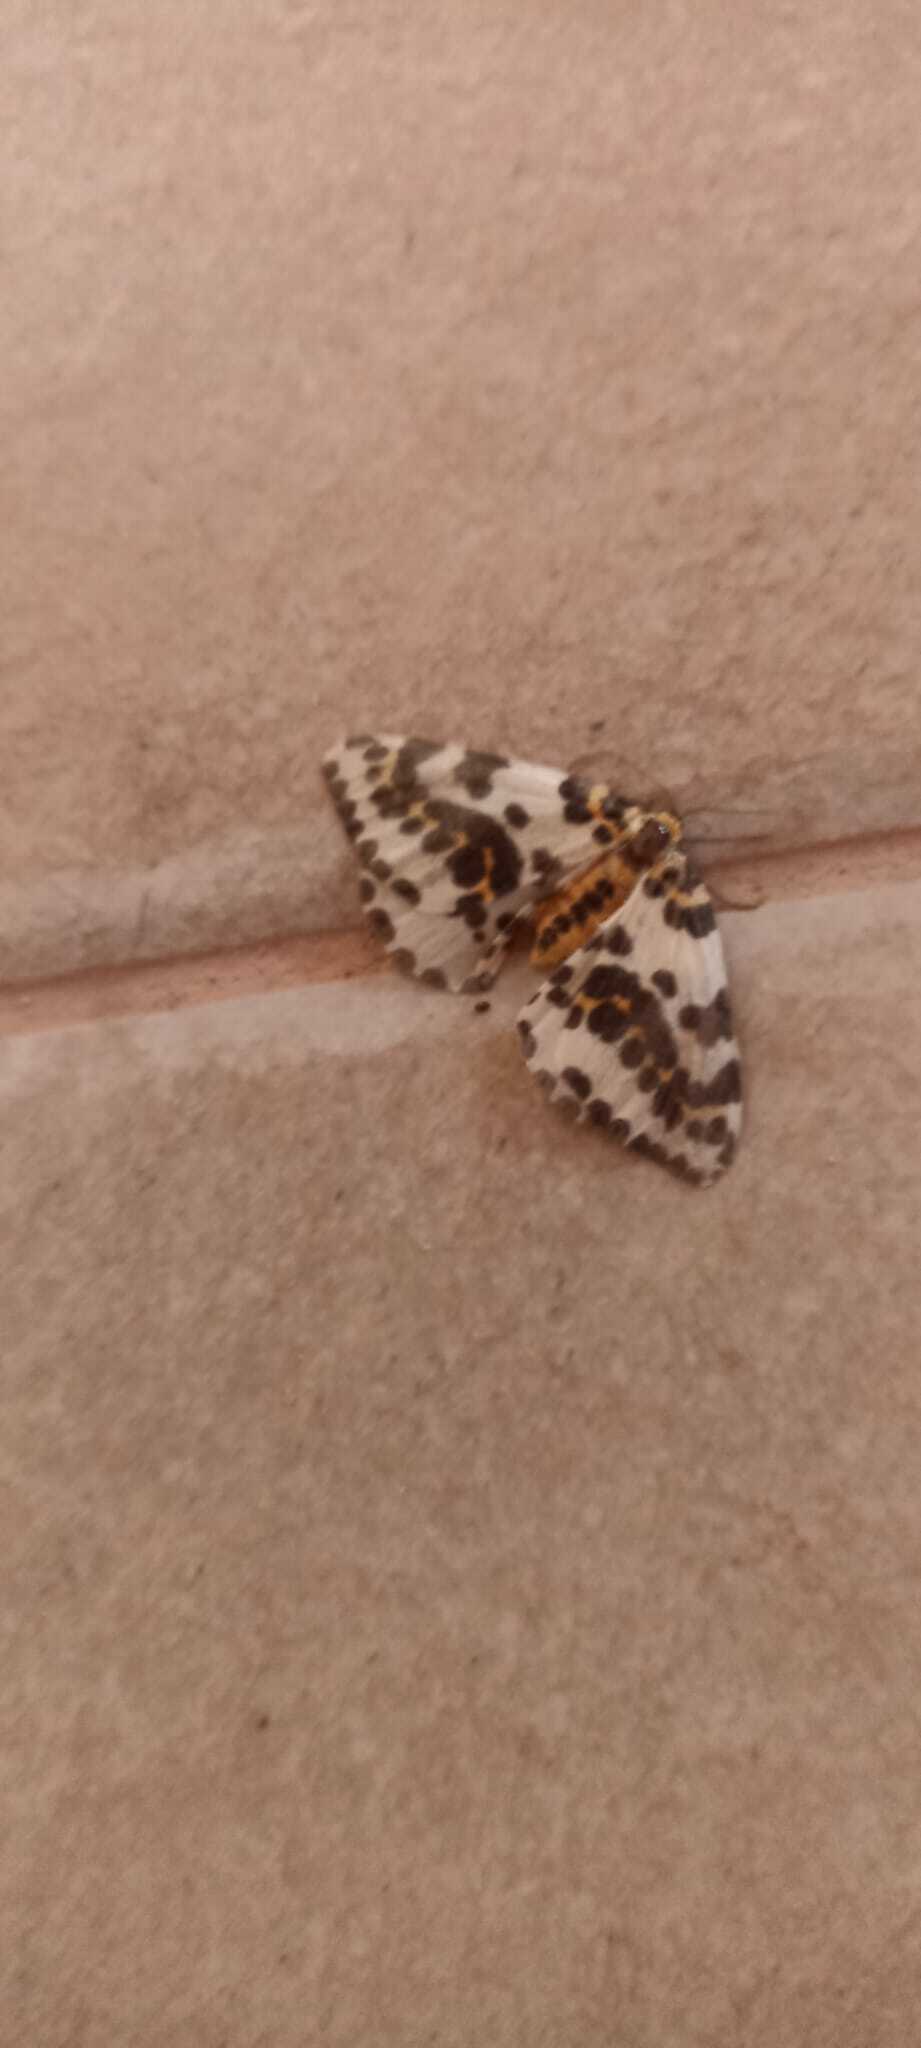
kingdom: Animalia
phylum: Arthropoda
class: Insecta
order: Lepidoptera
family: Geometridae
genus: Abraxas
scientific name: Abraxas grossulariata
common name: Magpie
